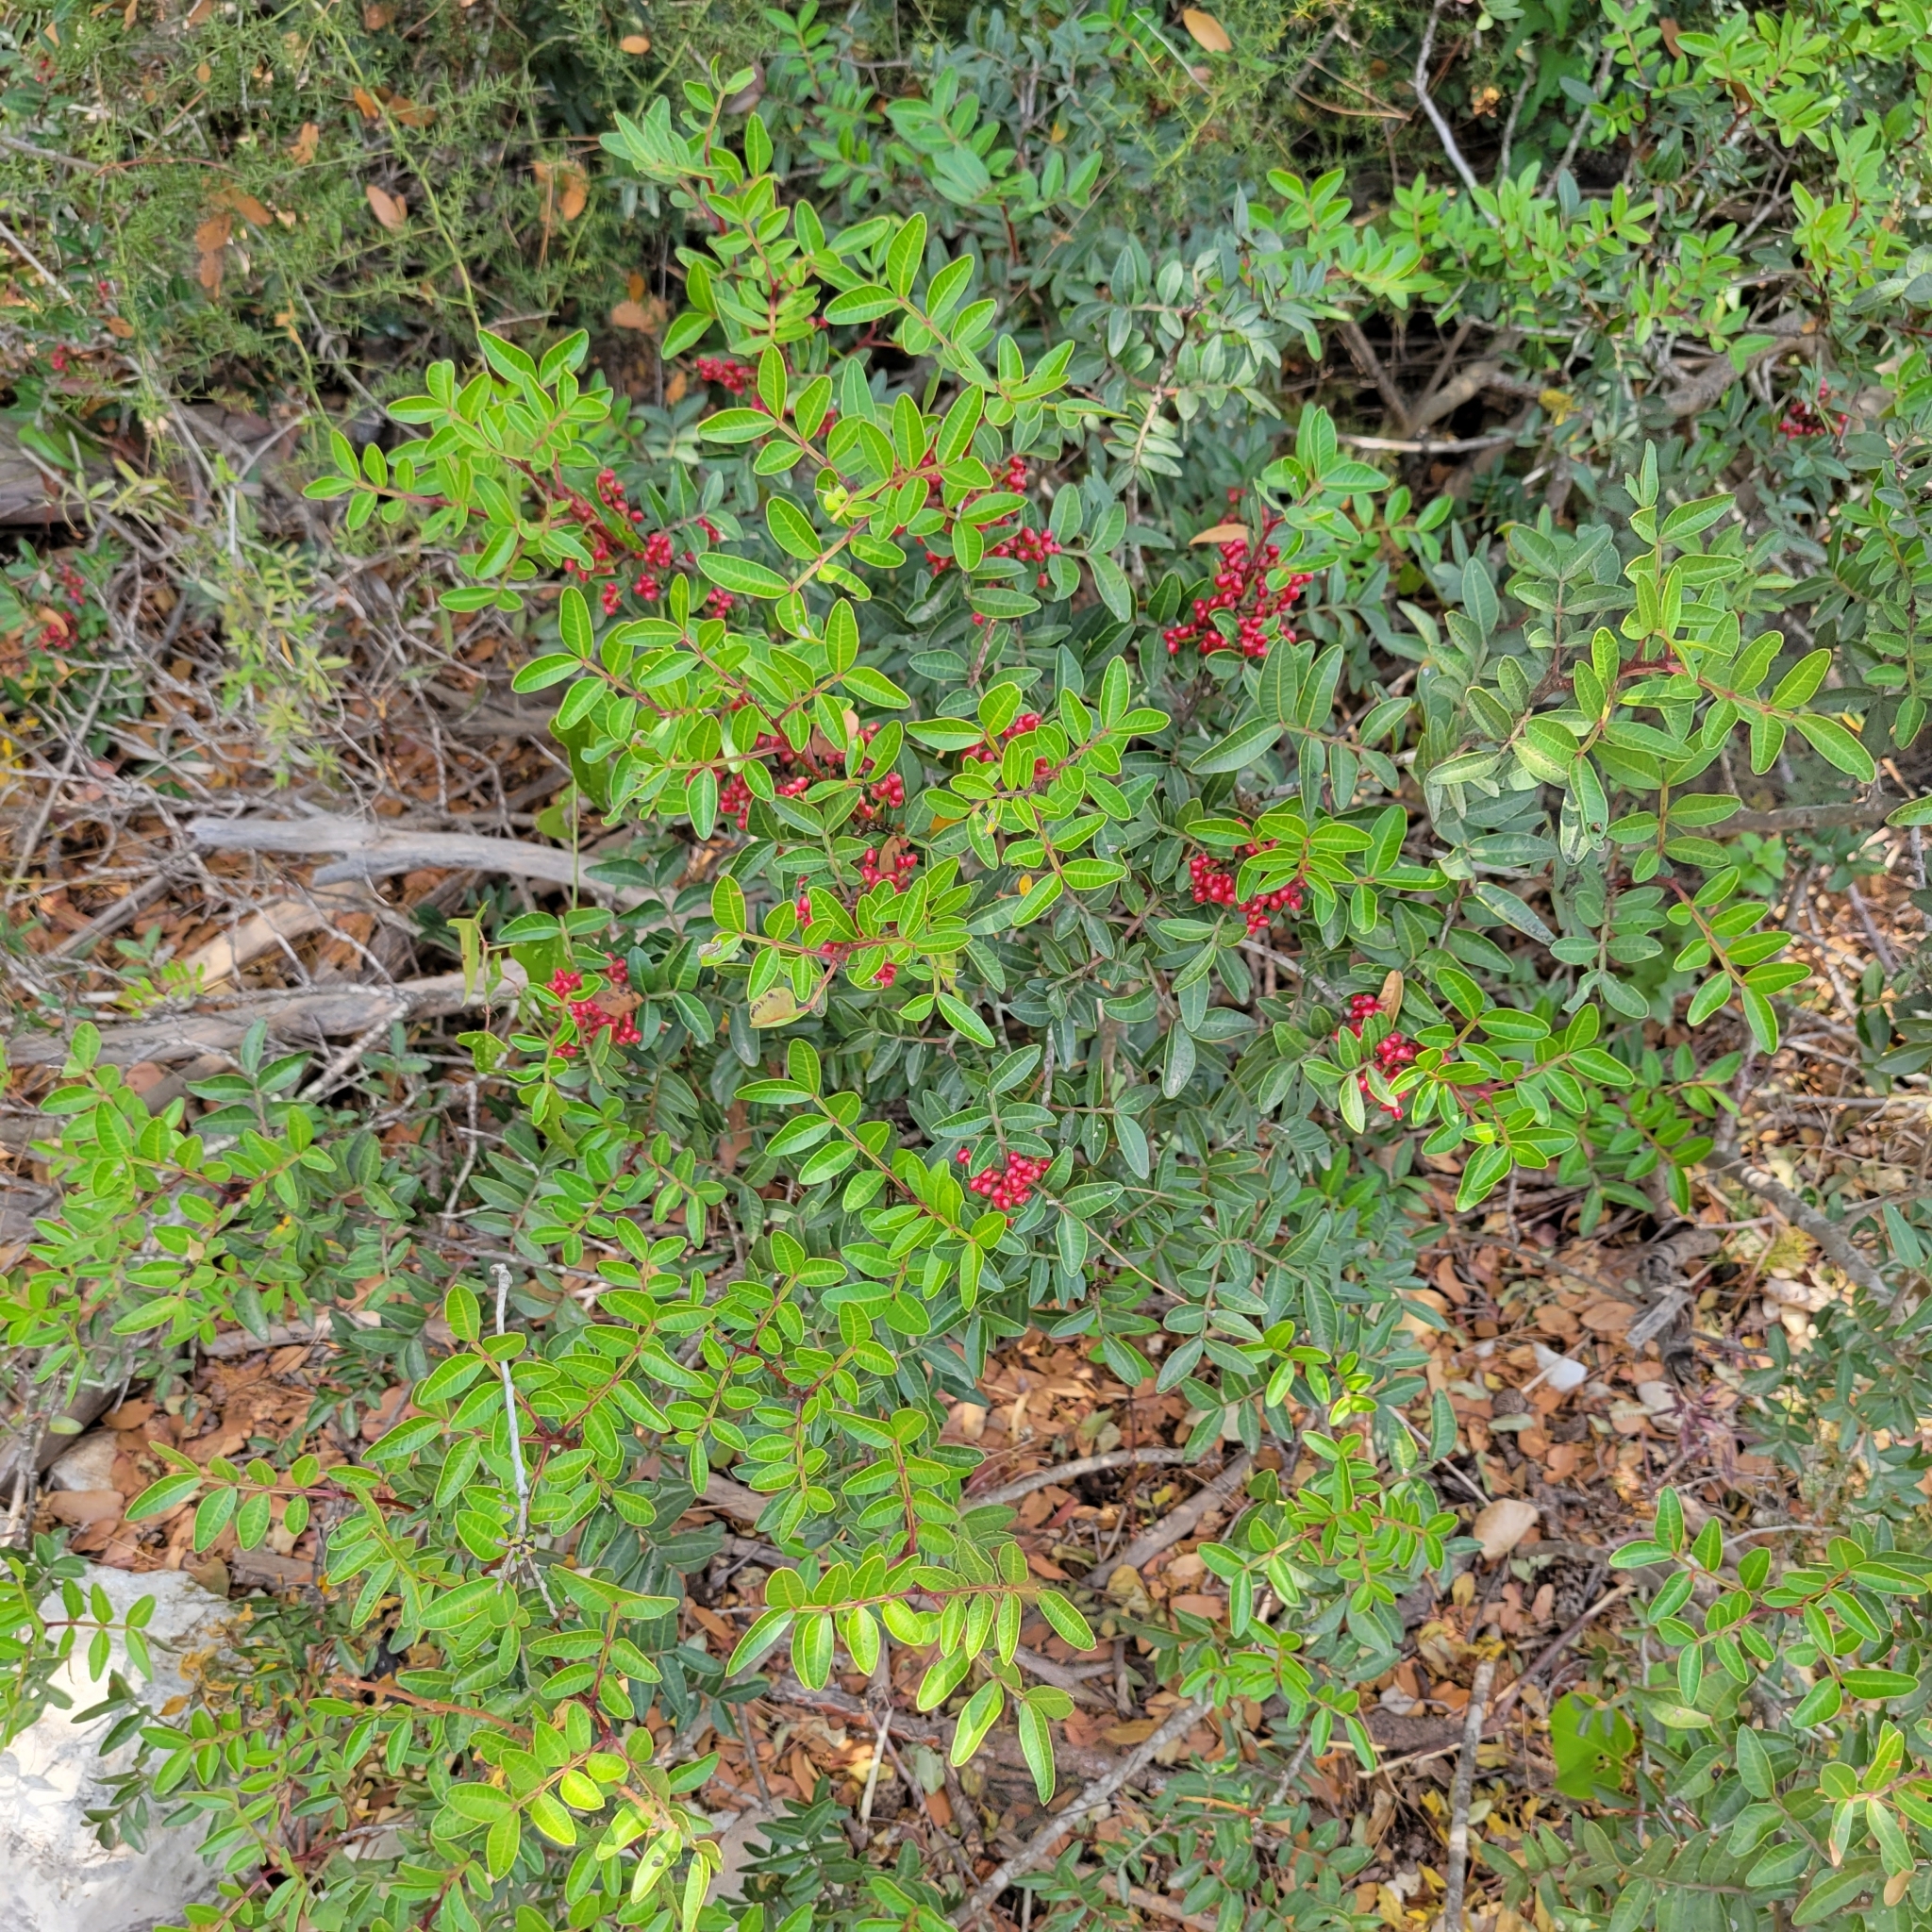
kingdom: Plantae
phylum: Tracheophyta
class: Magnoliopsida
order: Sapindales
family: Anacardiaceae
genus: Pistacia
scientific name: Pistacia lentiscus
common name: Lentisk
